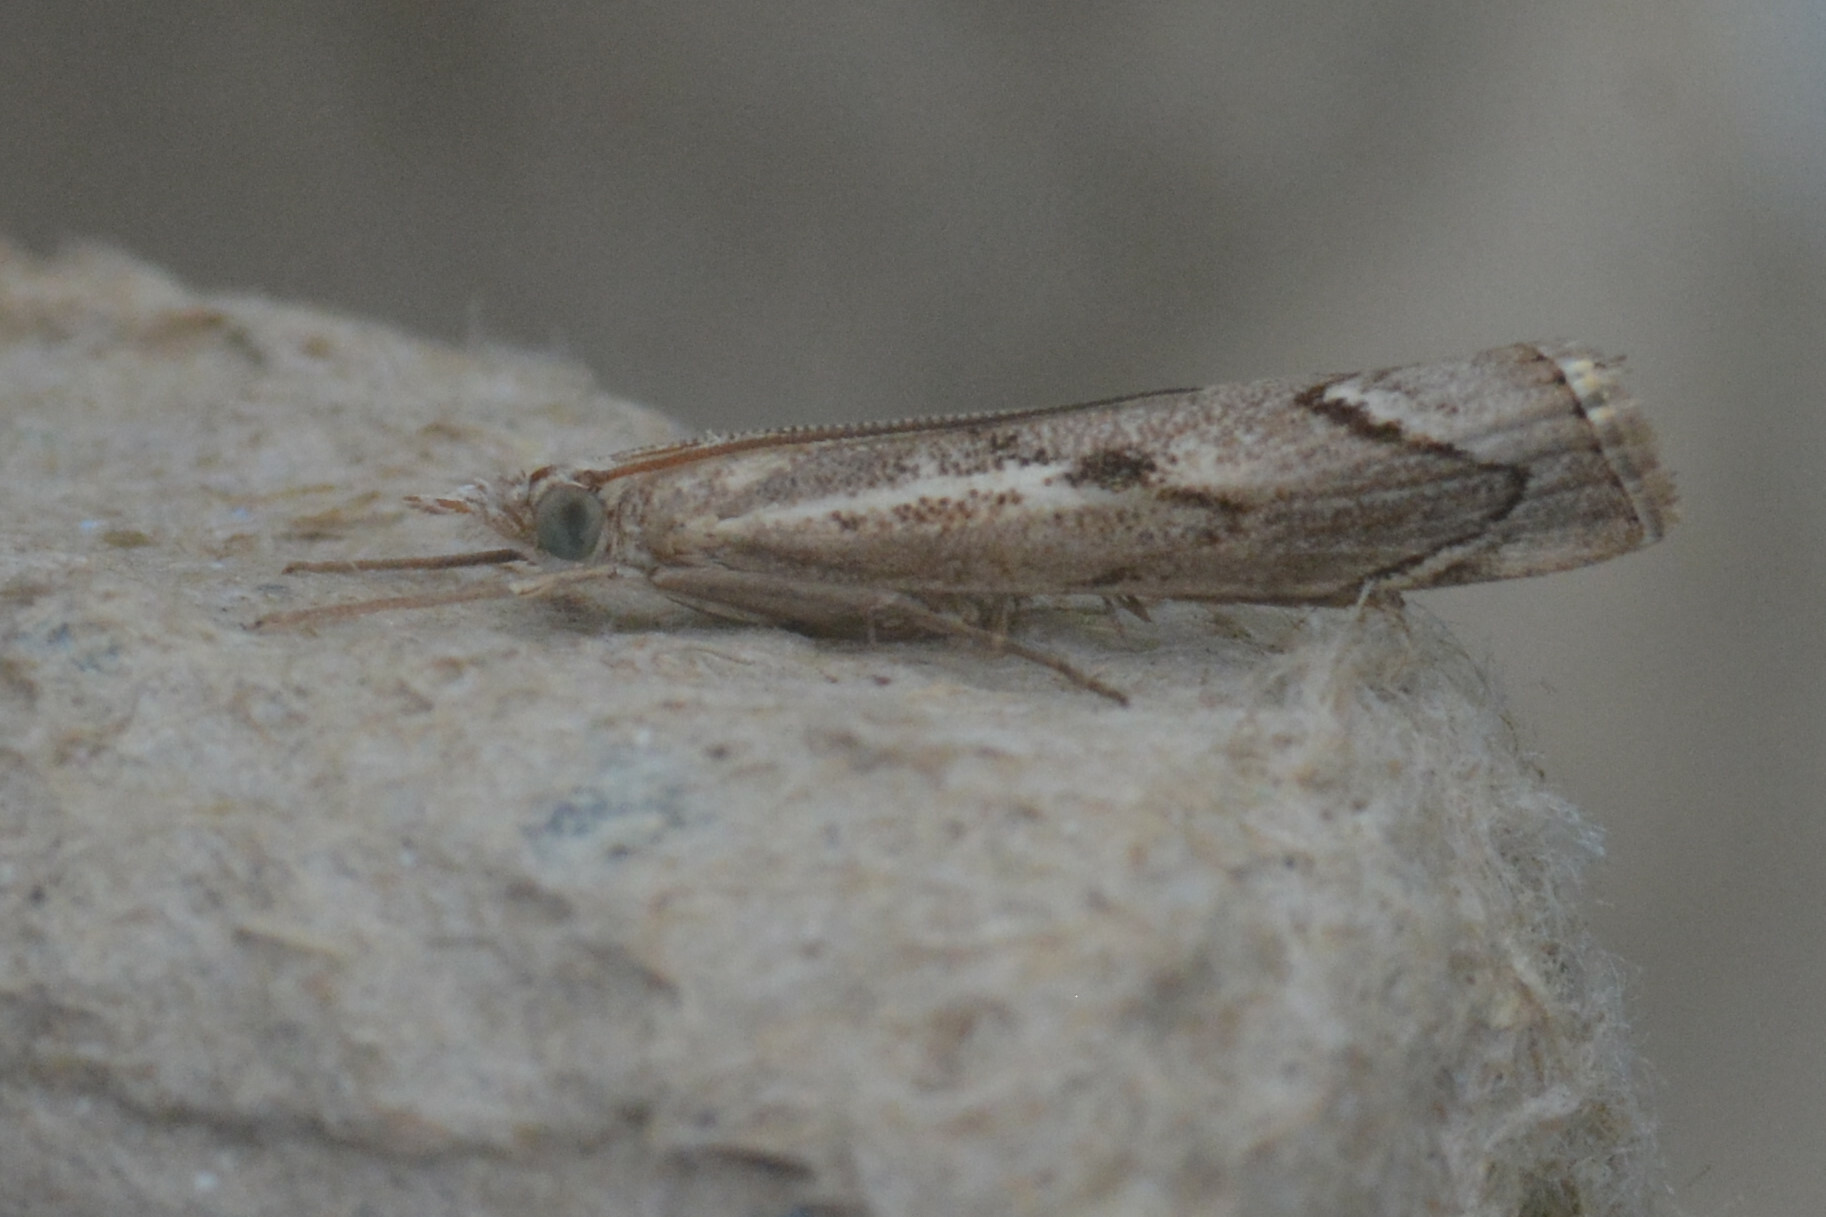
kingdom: Animalia
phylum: Arthropoda
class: Insecta
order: Lepidoptera
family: Crambidae
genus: Agriphila
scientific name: Agriphila geniculea
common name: Elbow-stripe grass-veneer
